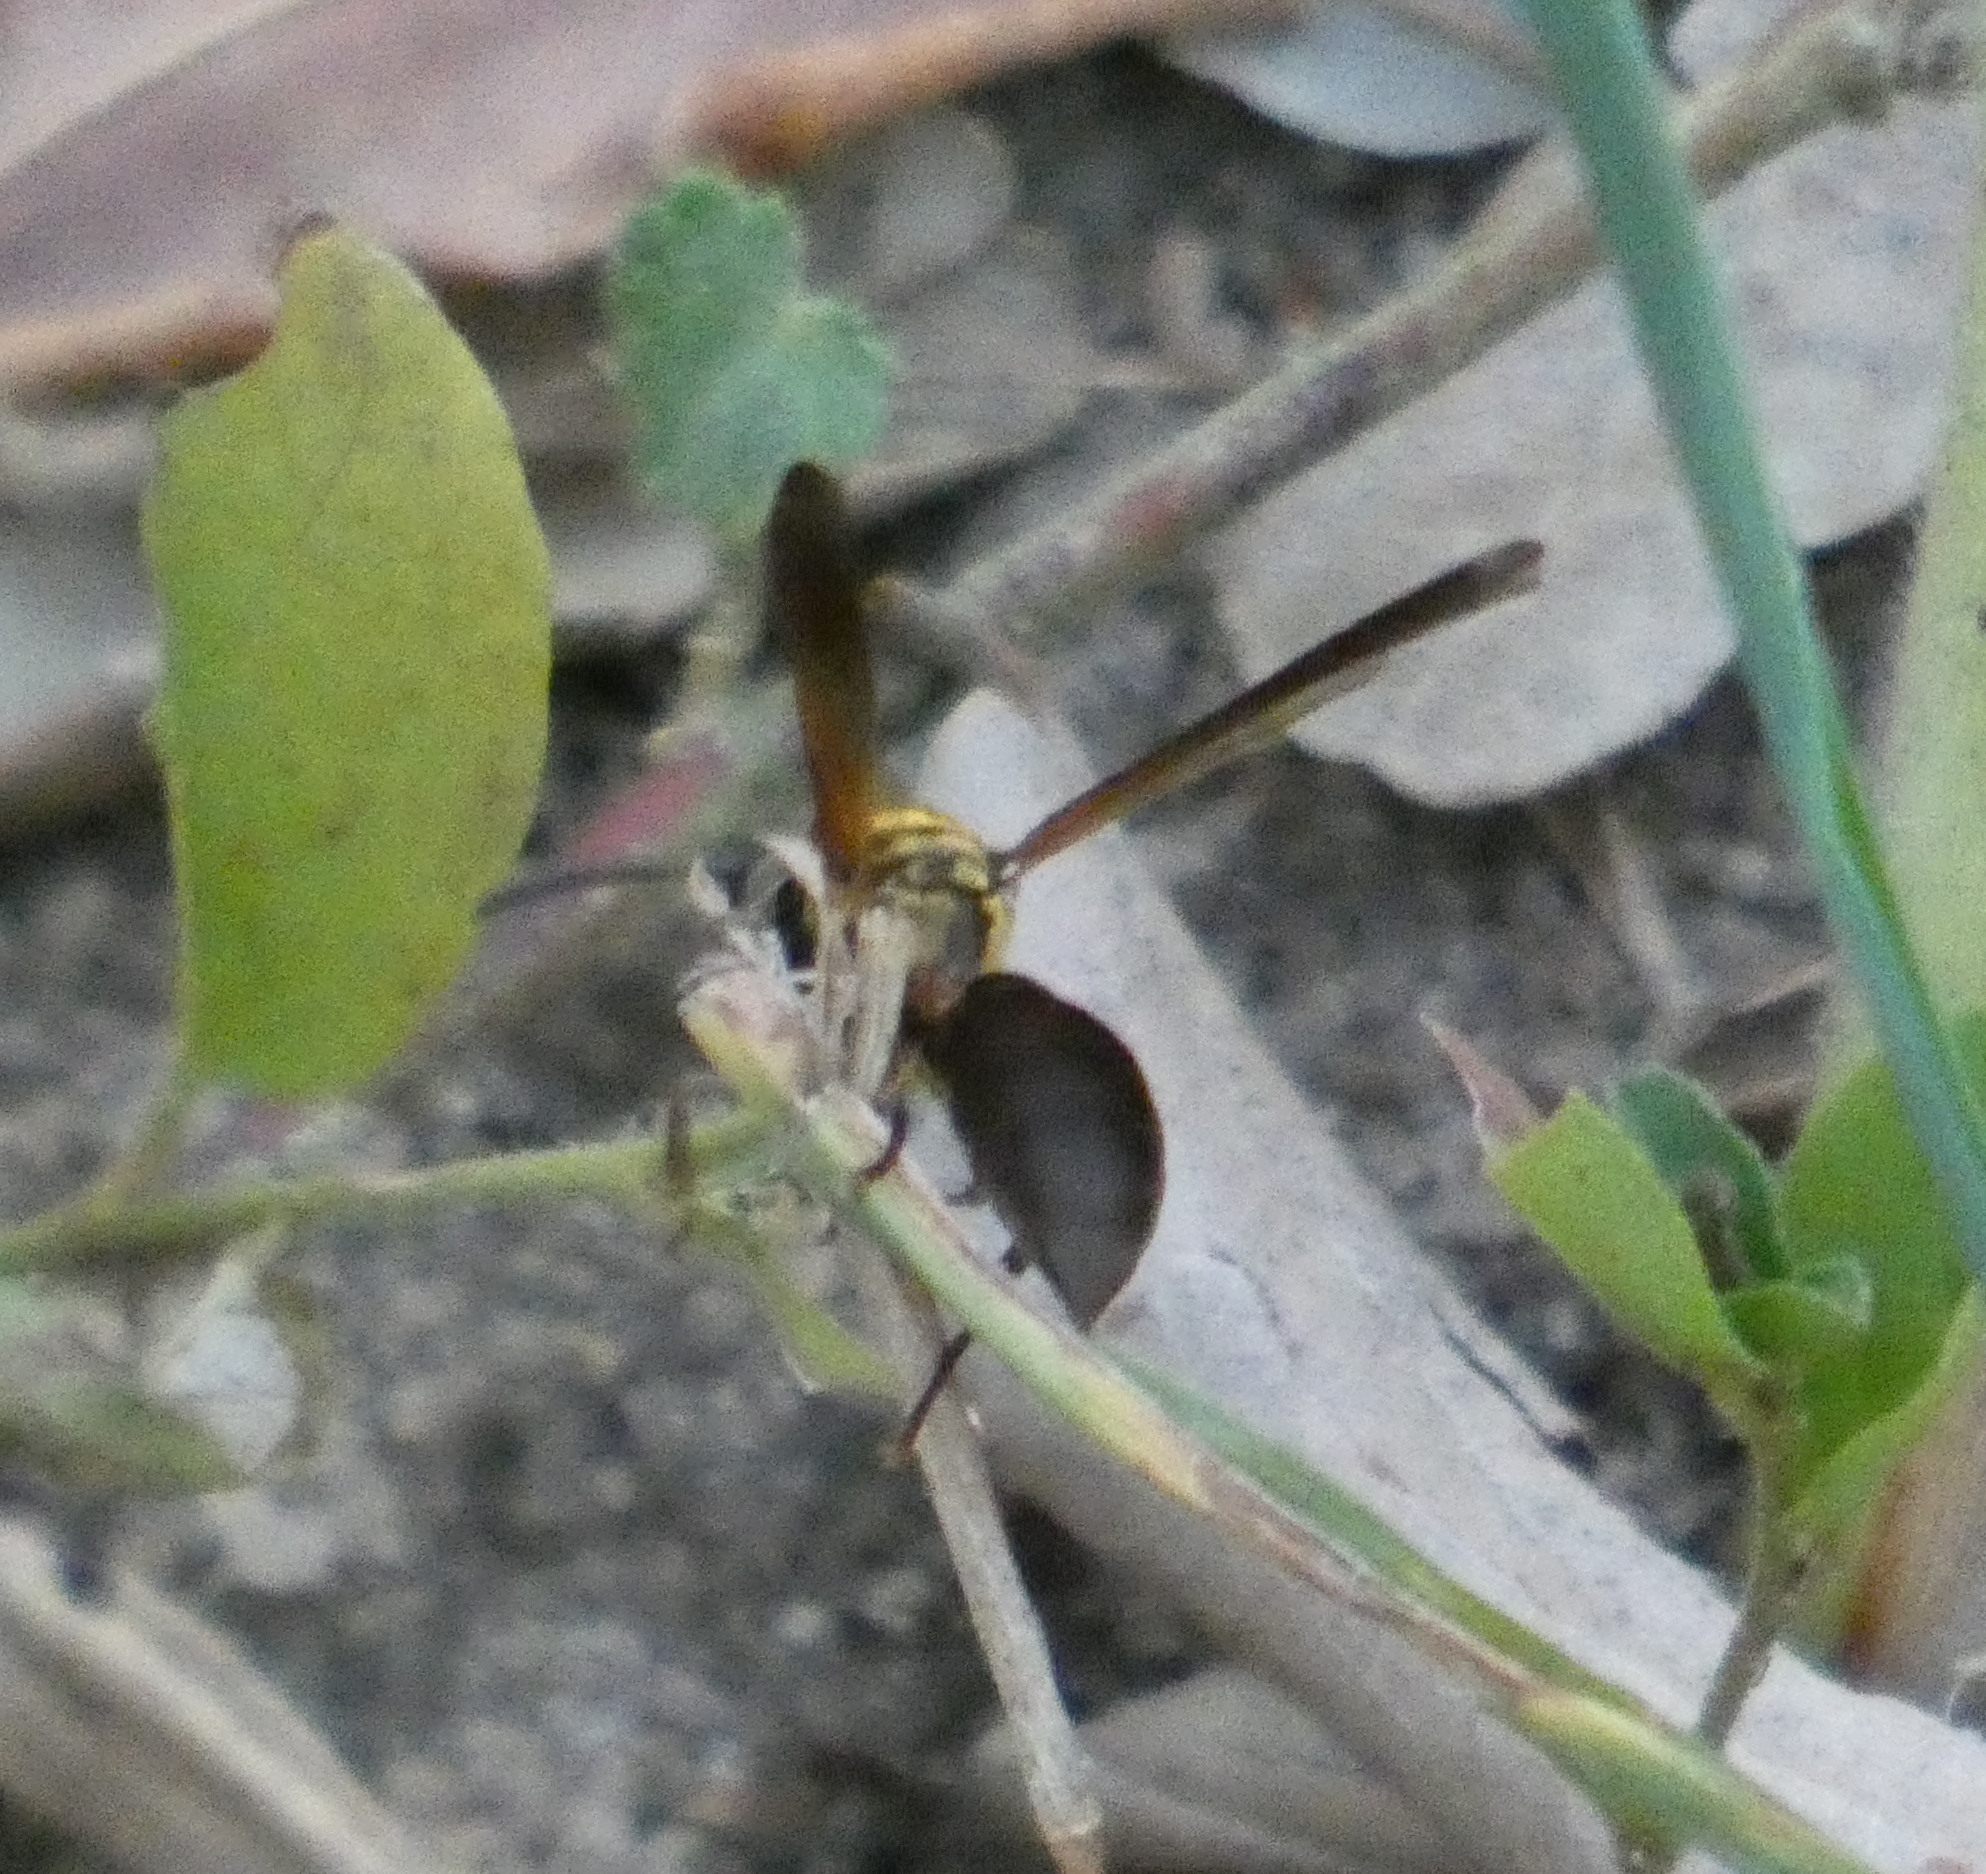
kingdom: Animalia
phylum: Arthropoda
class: Insecta
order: Hymenoptera
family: Eumenidae
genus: Polybia
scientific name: Polybia chrysothorax
